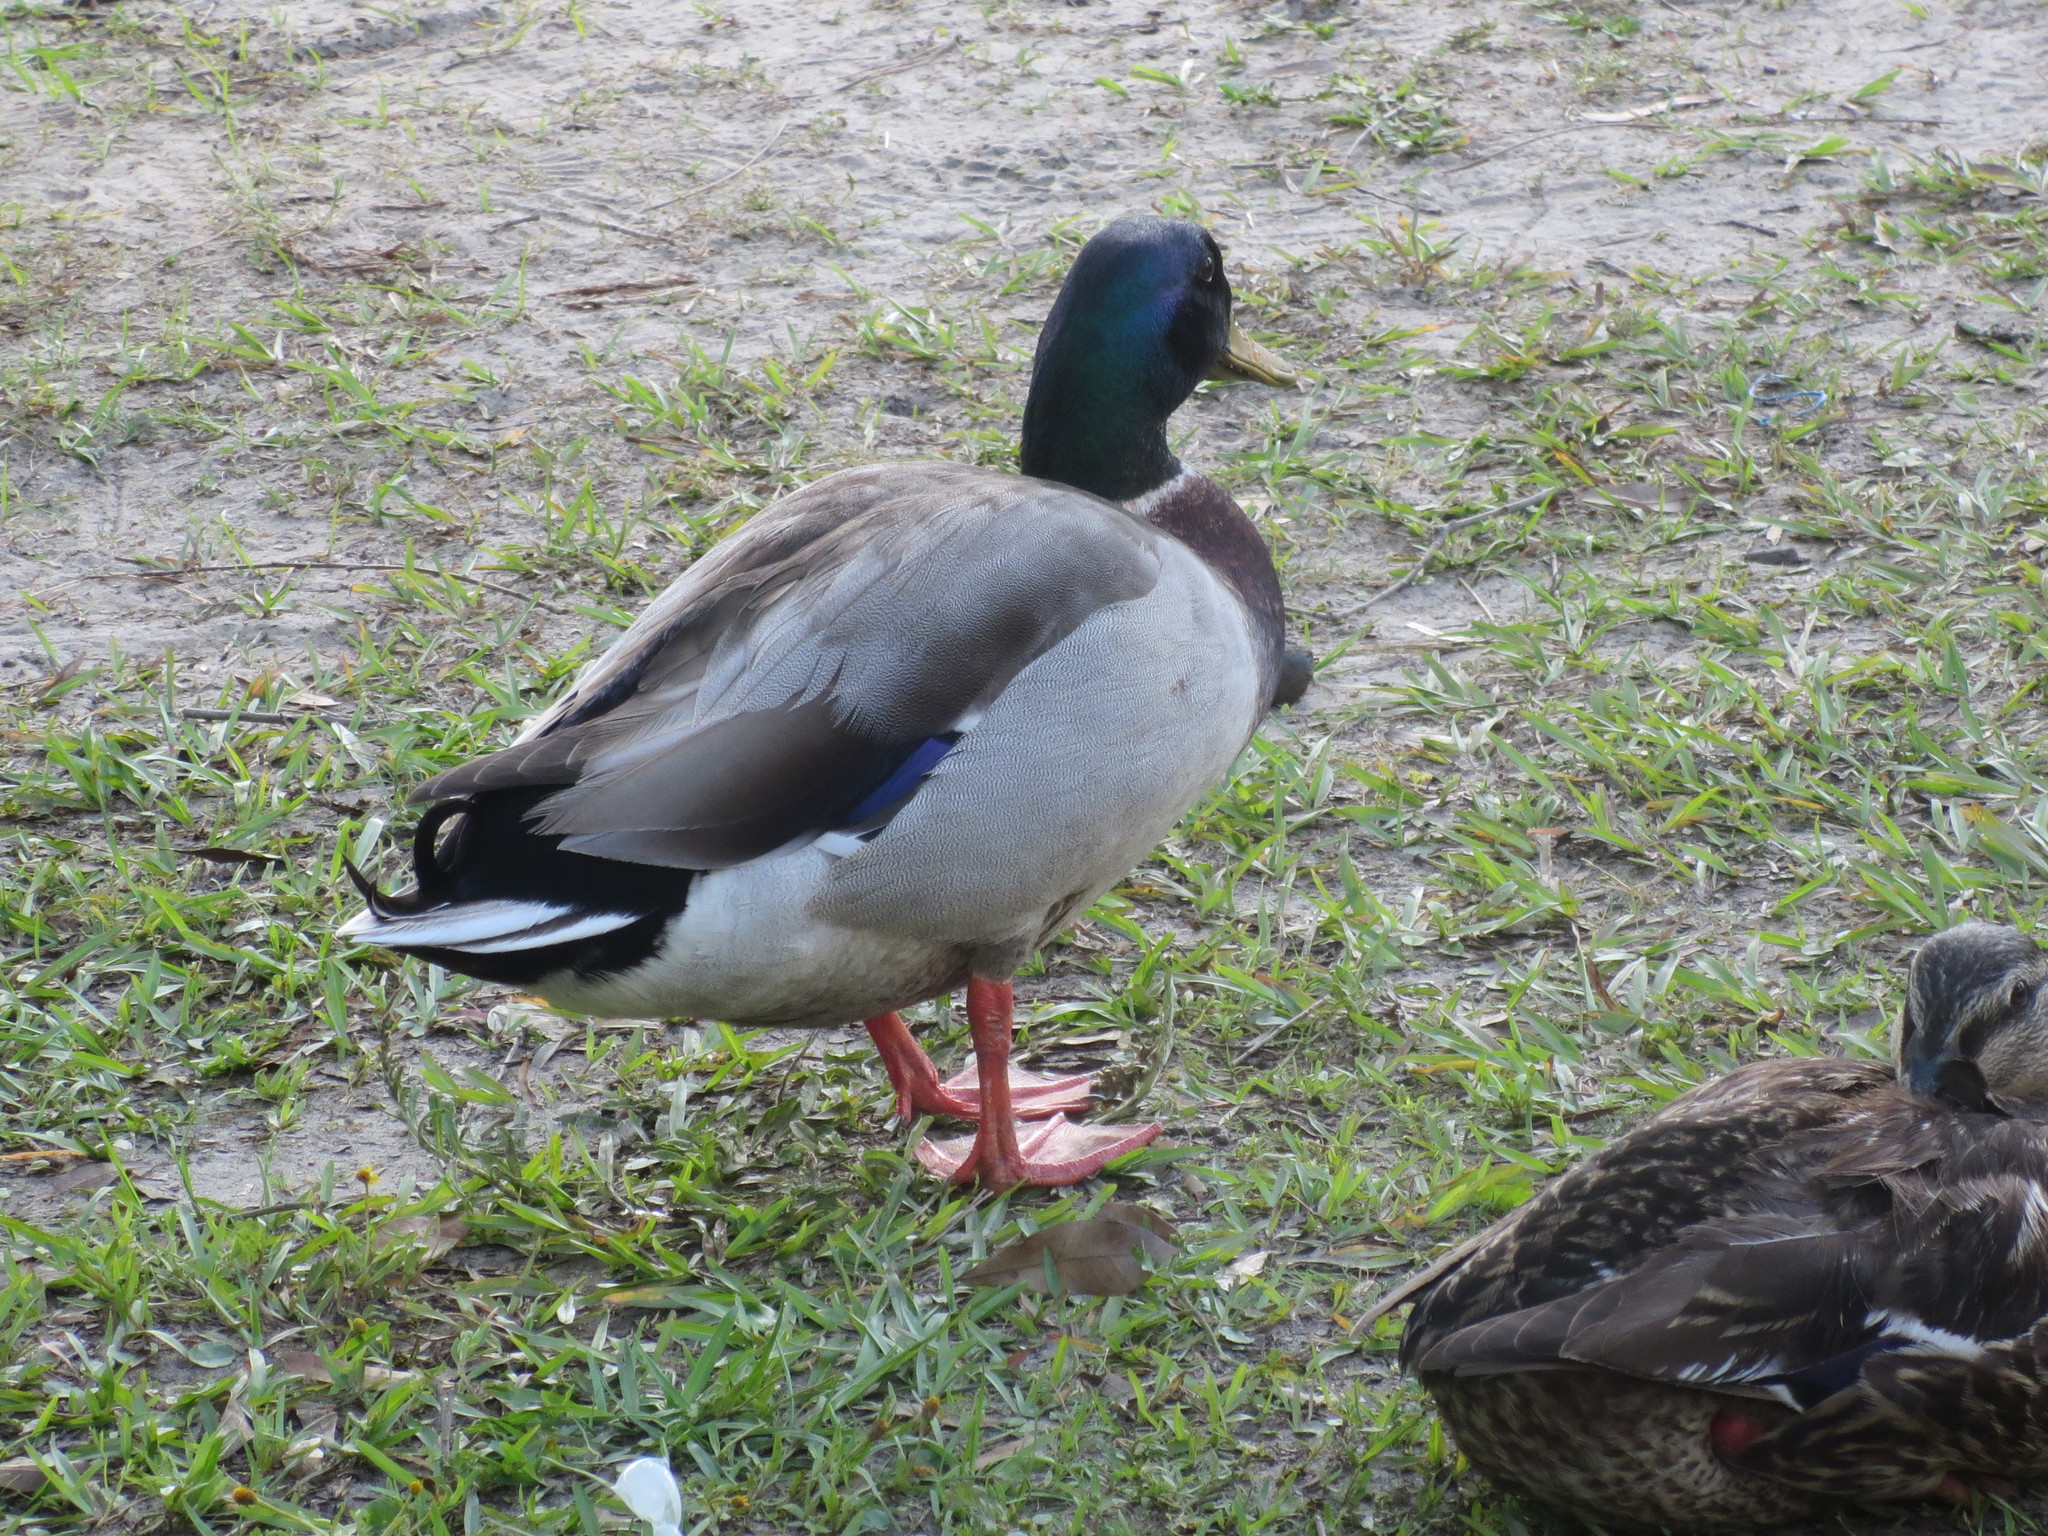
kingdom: Animalia
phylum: Chordata
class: Aves
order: Anseriformes
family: Anatidae
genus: Anas
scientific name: Anas platyrhynchos
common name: Mallard
